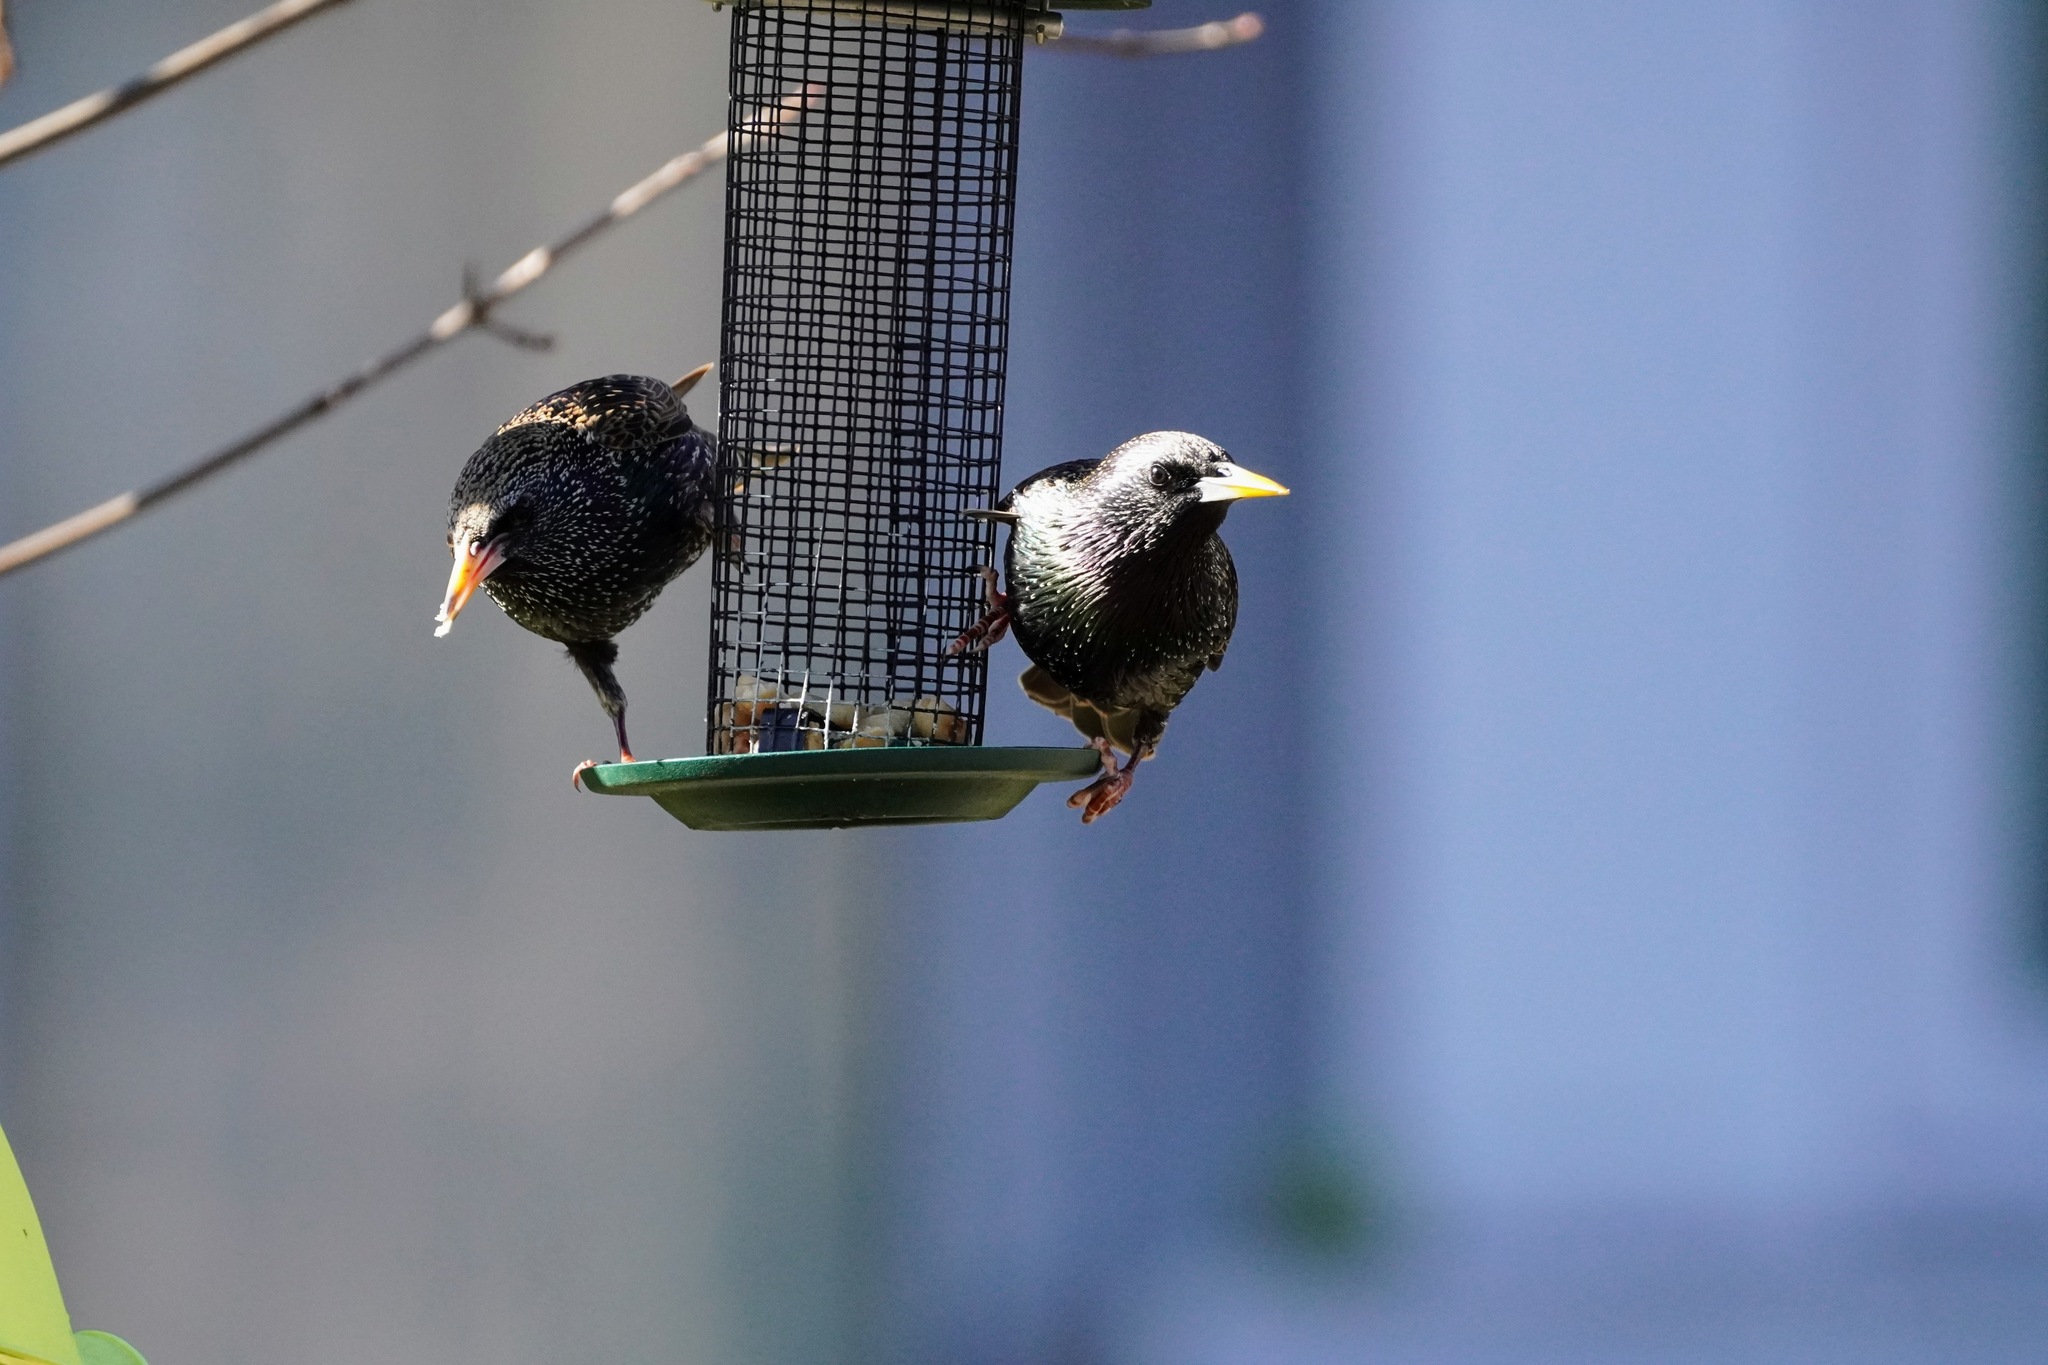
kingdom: Animalia
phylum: Chordata
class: Aves
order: Passeriformes
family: Sturnidae
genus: Sturnus
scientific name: Sturnus vulgaris
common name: Common starling
